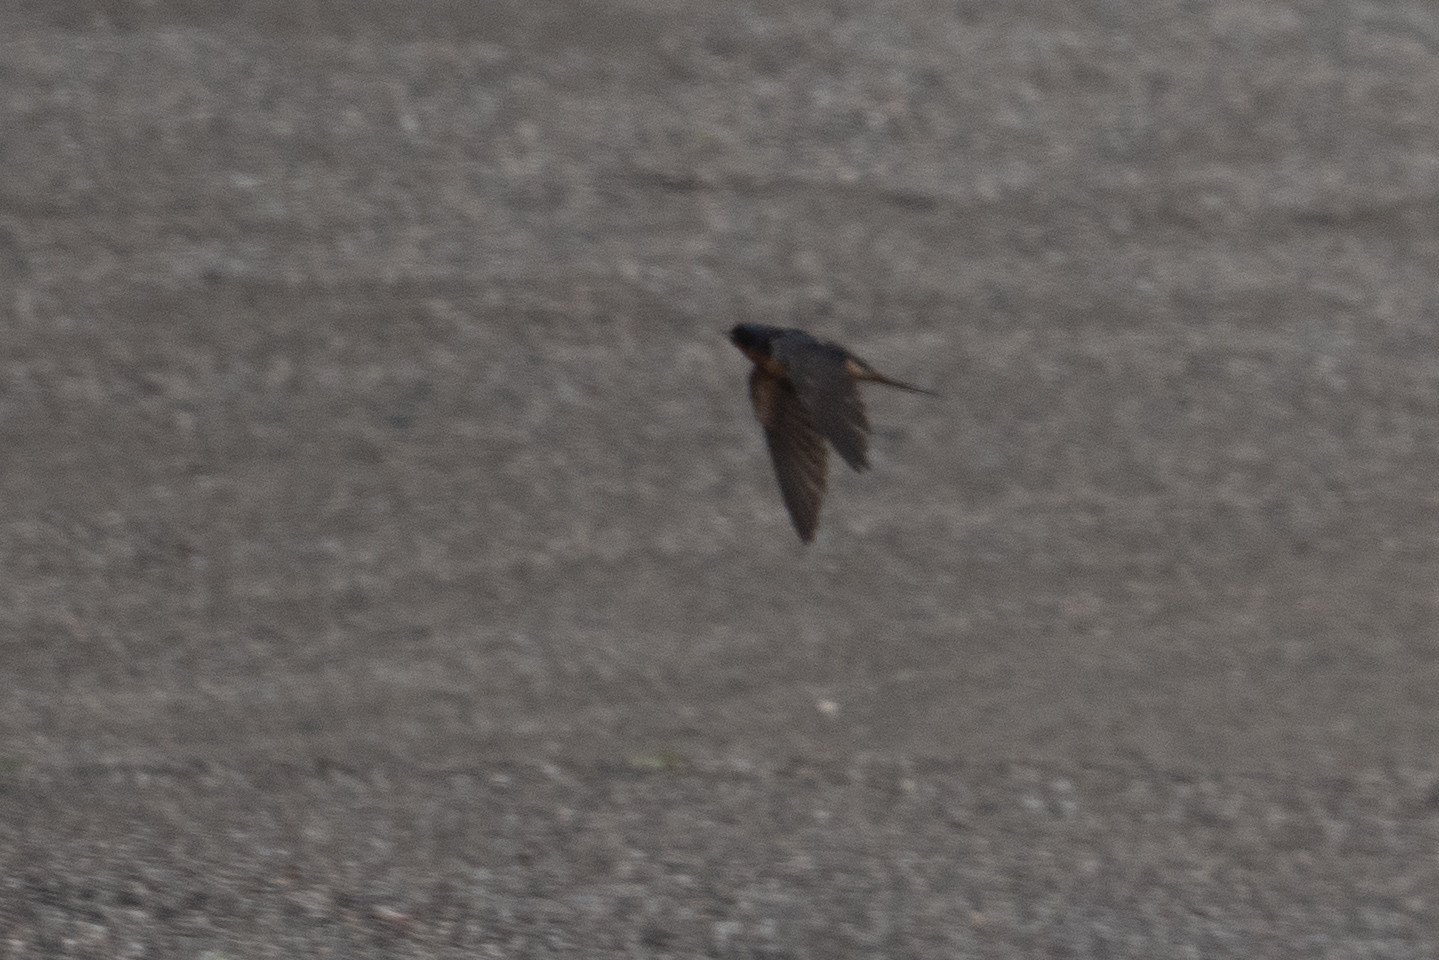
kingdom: Animalia
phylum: Chordata
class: Aves
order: Passeriformes
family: Hirundinidae
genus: Hirundo
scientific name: Hirundo rustica
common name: Barn swallow
